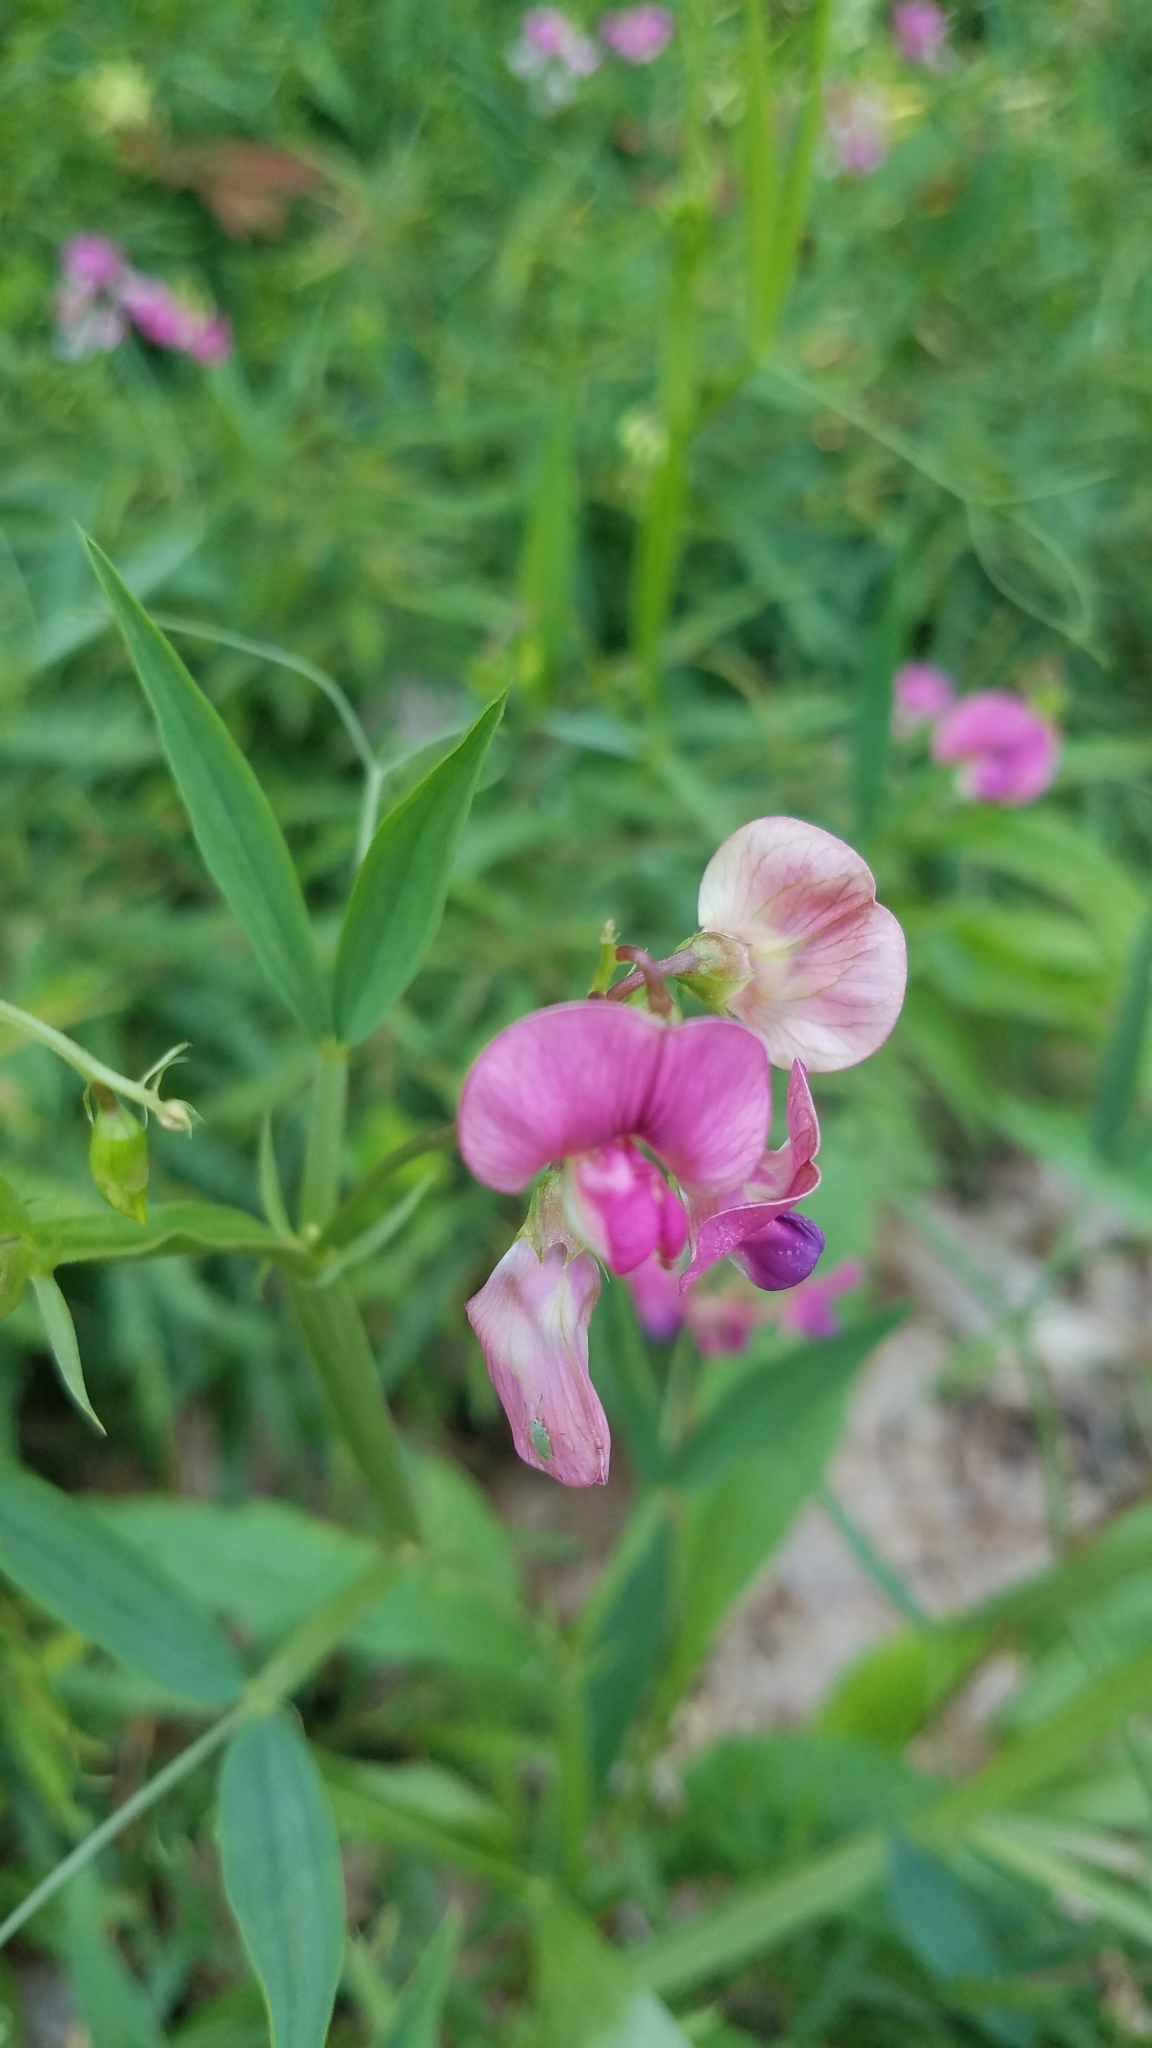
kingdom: Plantae
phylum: Tracheophyta
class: Magnoliopsida
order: Fabales
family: Fabaceae
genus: Lathyrus
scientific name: Lathyrus sylvestris
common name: Flat pea
